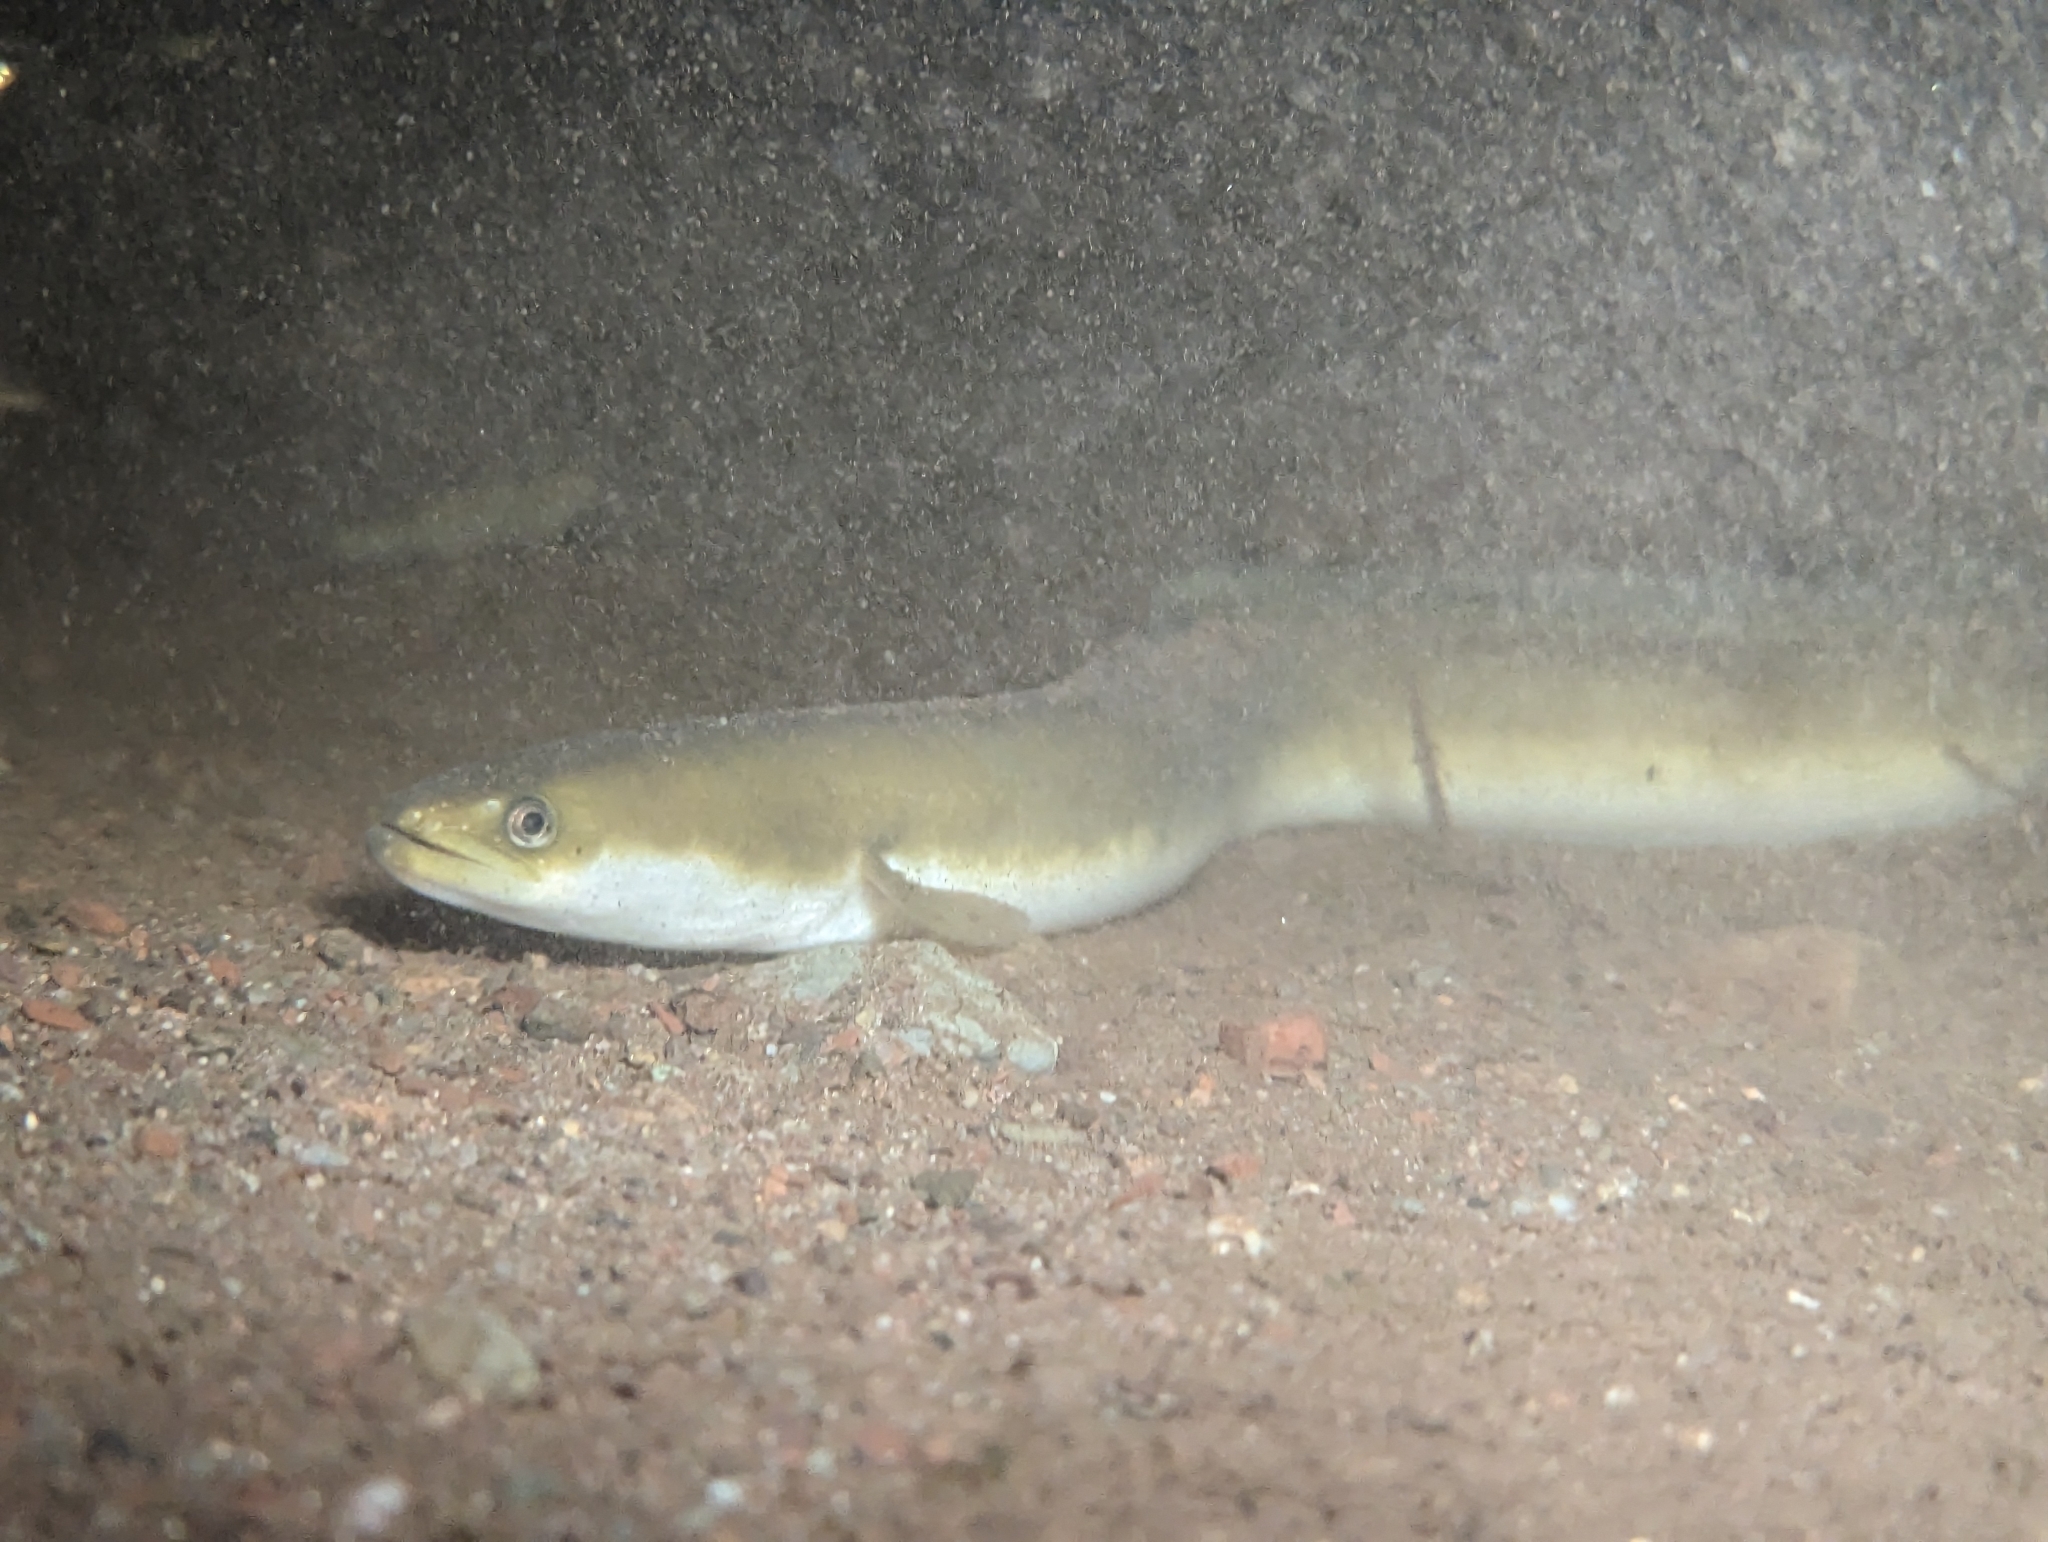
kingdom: Animalia
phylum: Chordata
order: Anguilliformes
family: Anguillidae
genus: Anguilla
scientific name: Anguilla rostrata
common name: American eel
